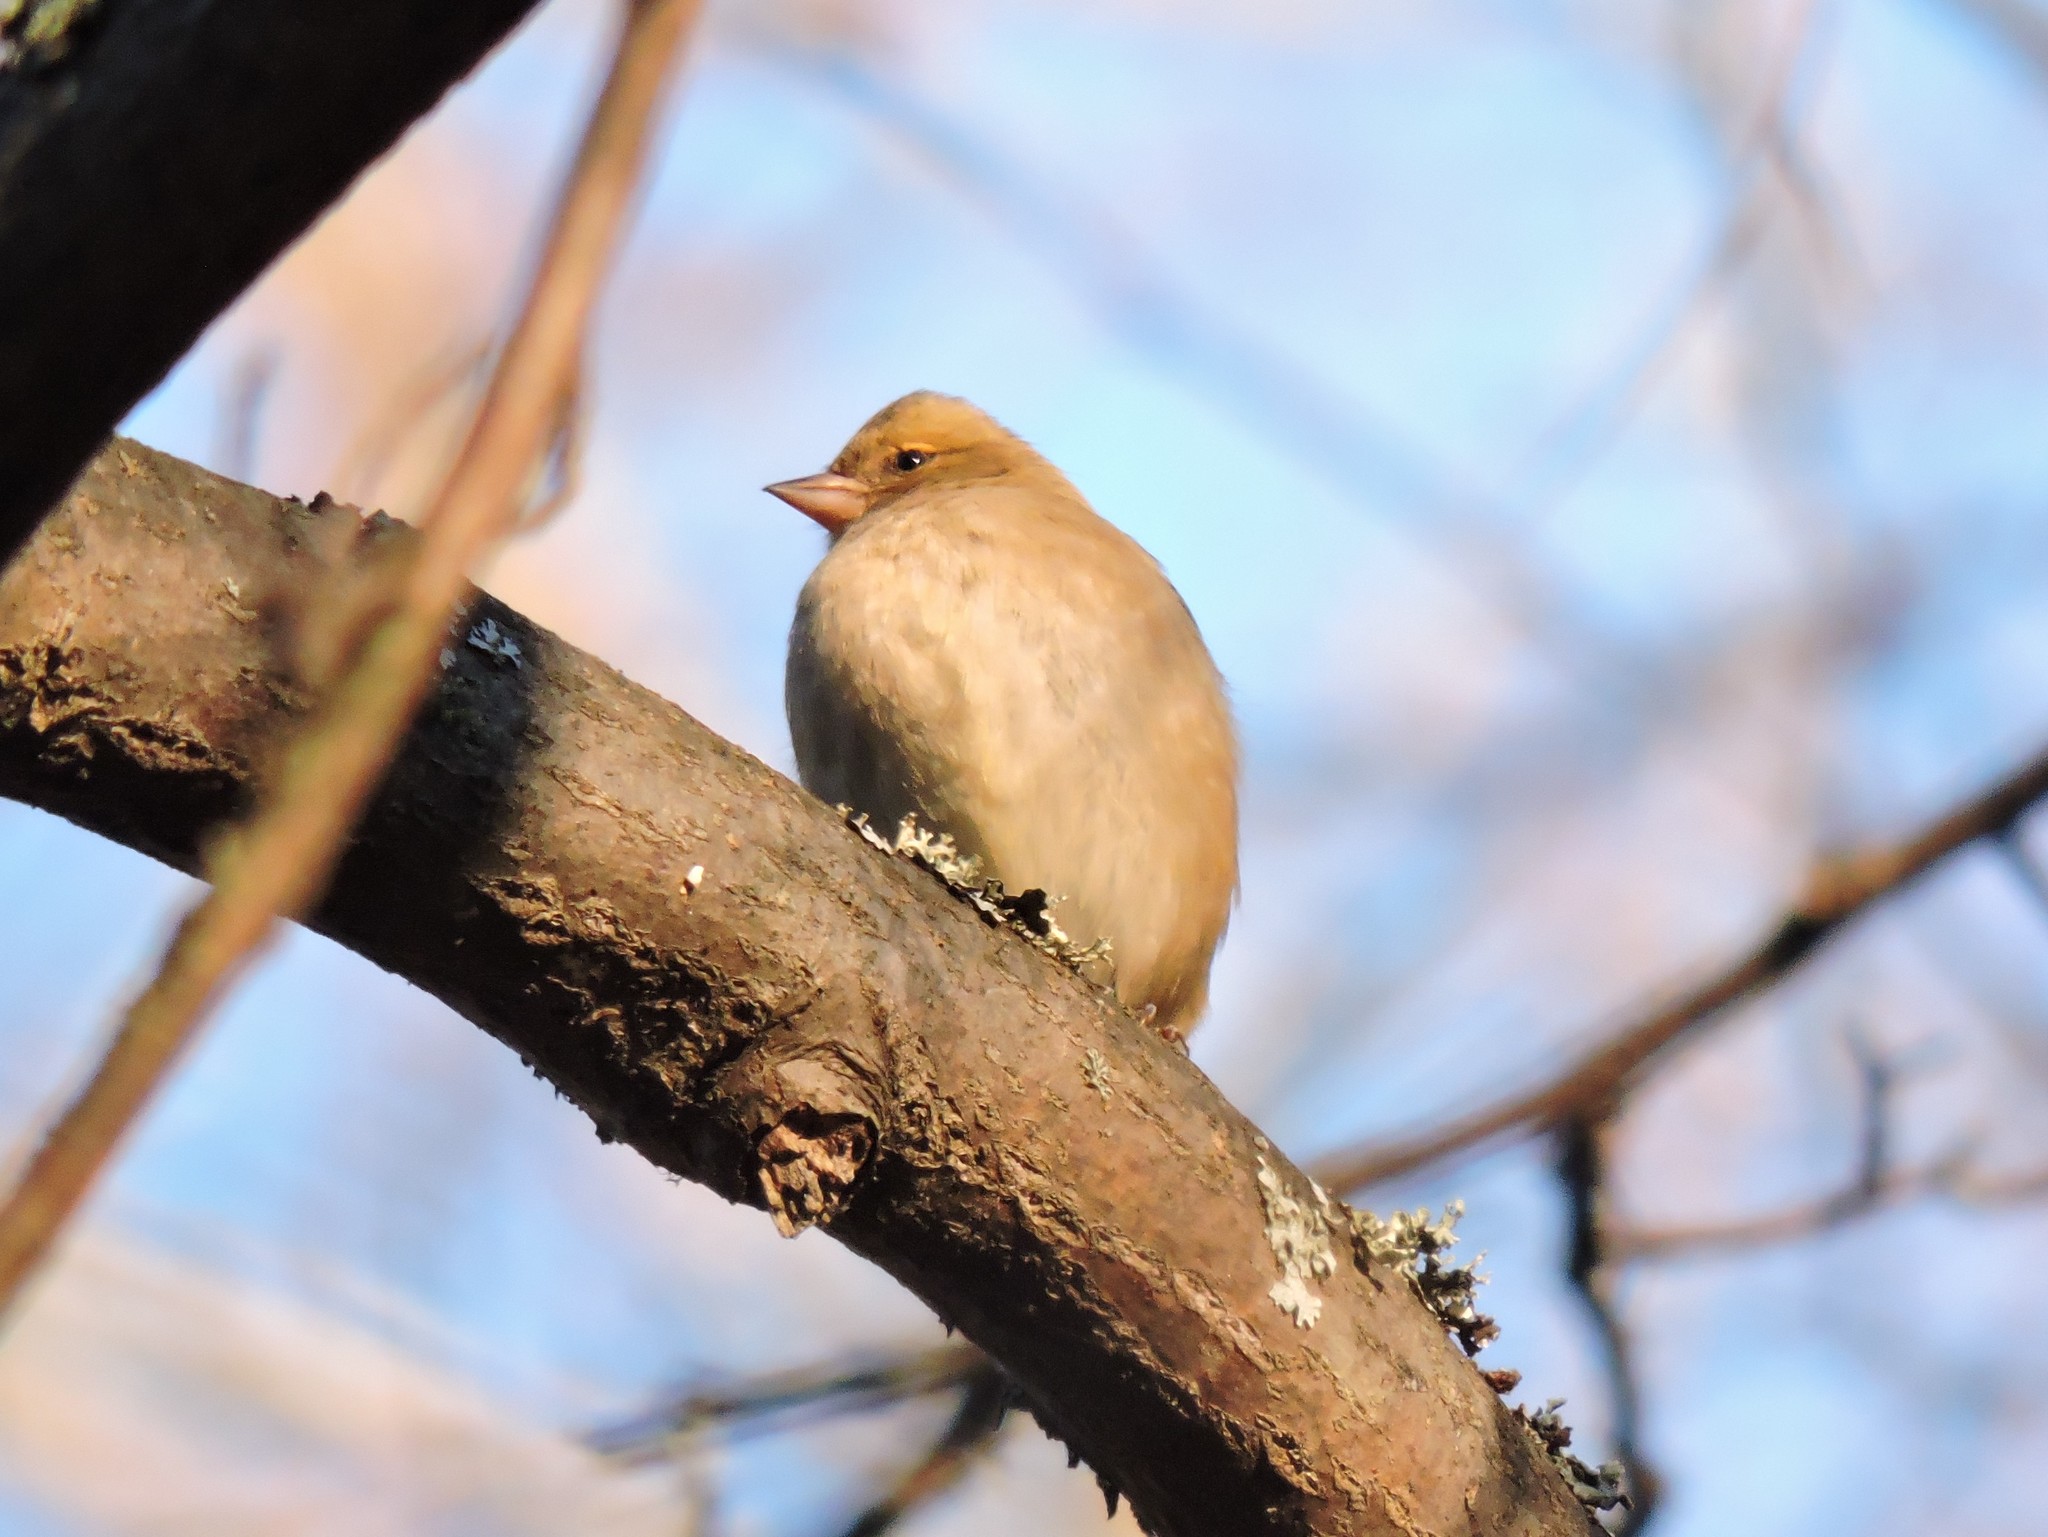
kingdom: Animalia
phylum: Chordata
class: Aves
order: Passeriformes
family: Fringillidae
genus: Fringilla
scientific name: Fringilla coelebs
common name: Common chaffinch
